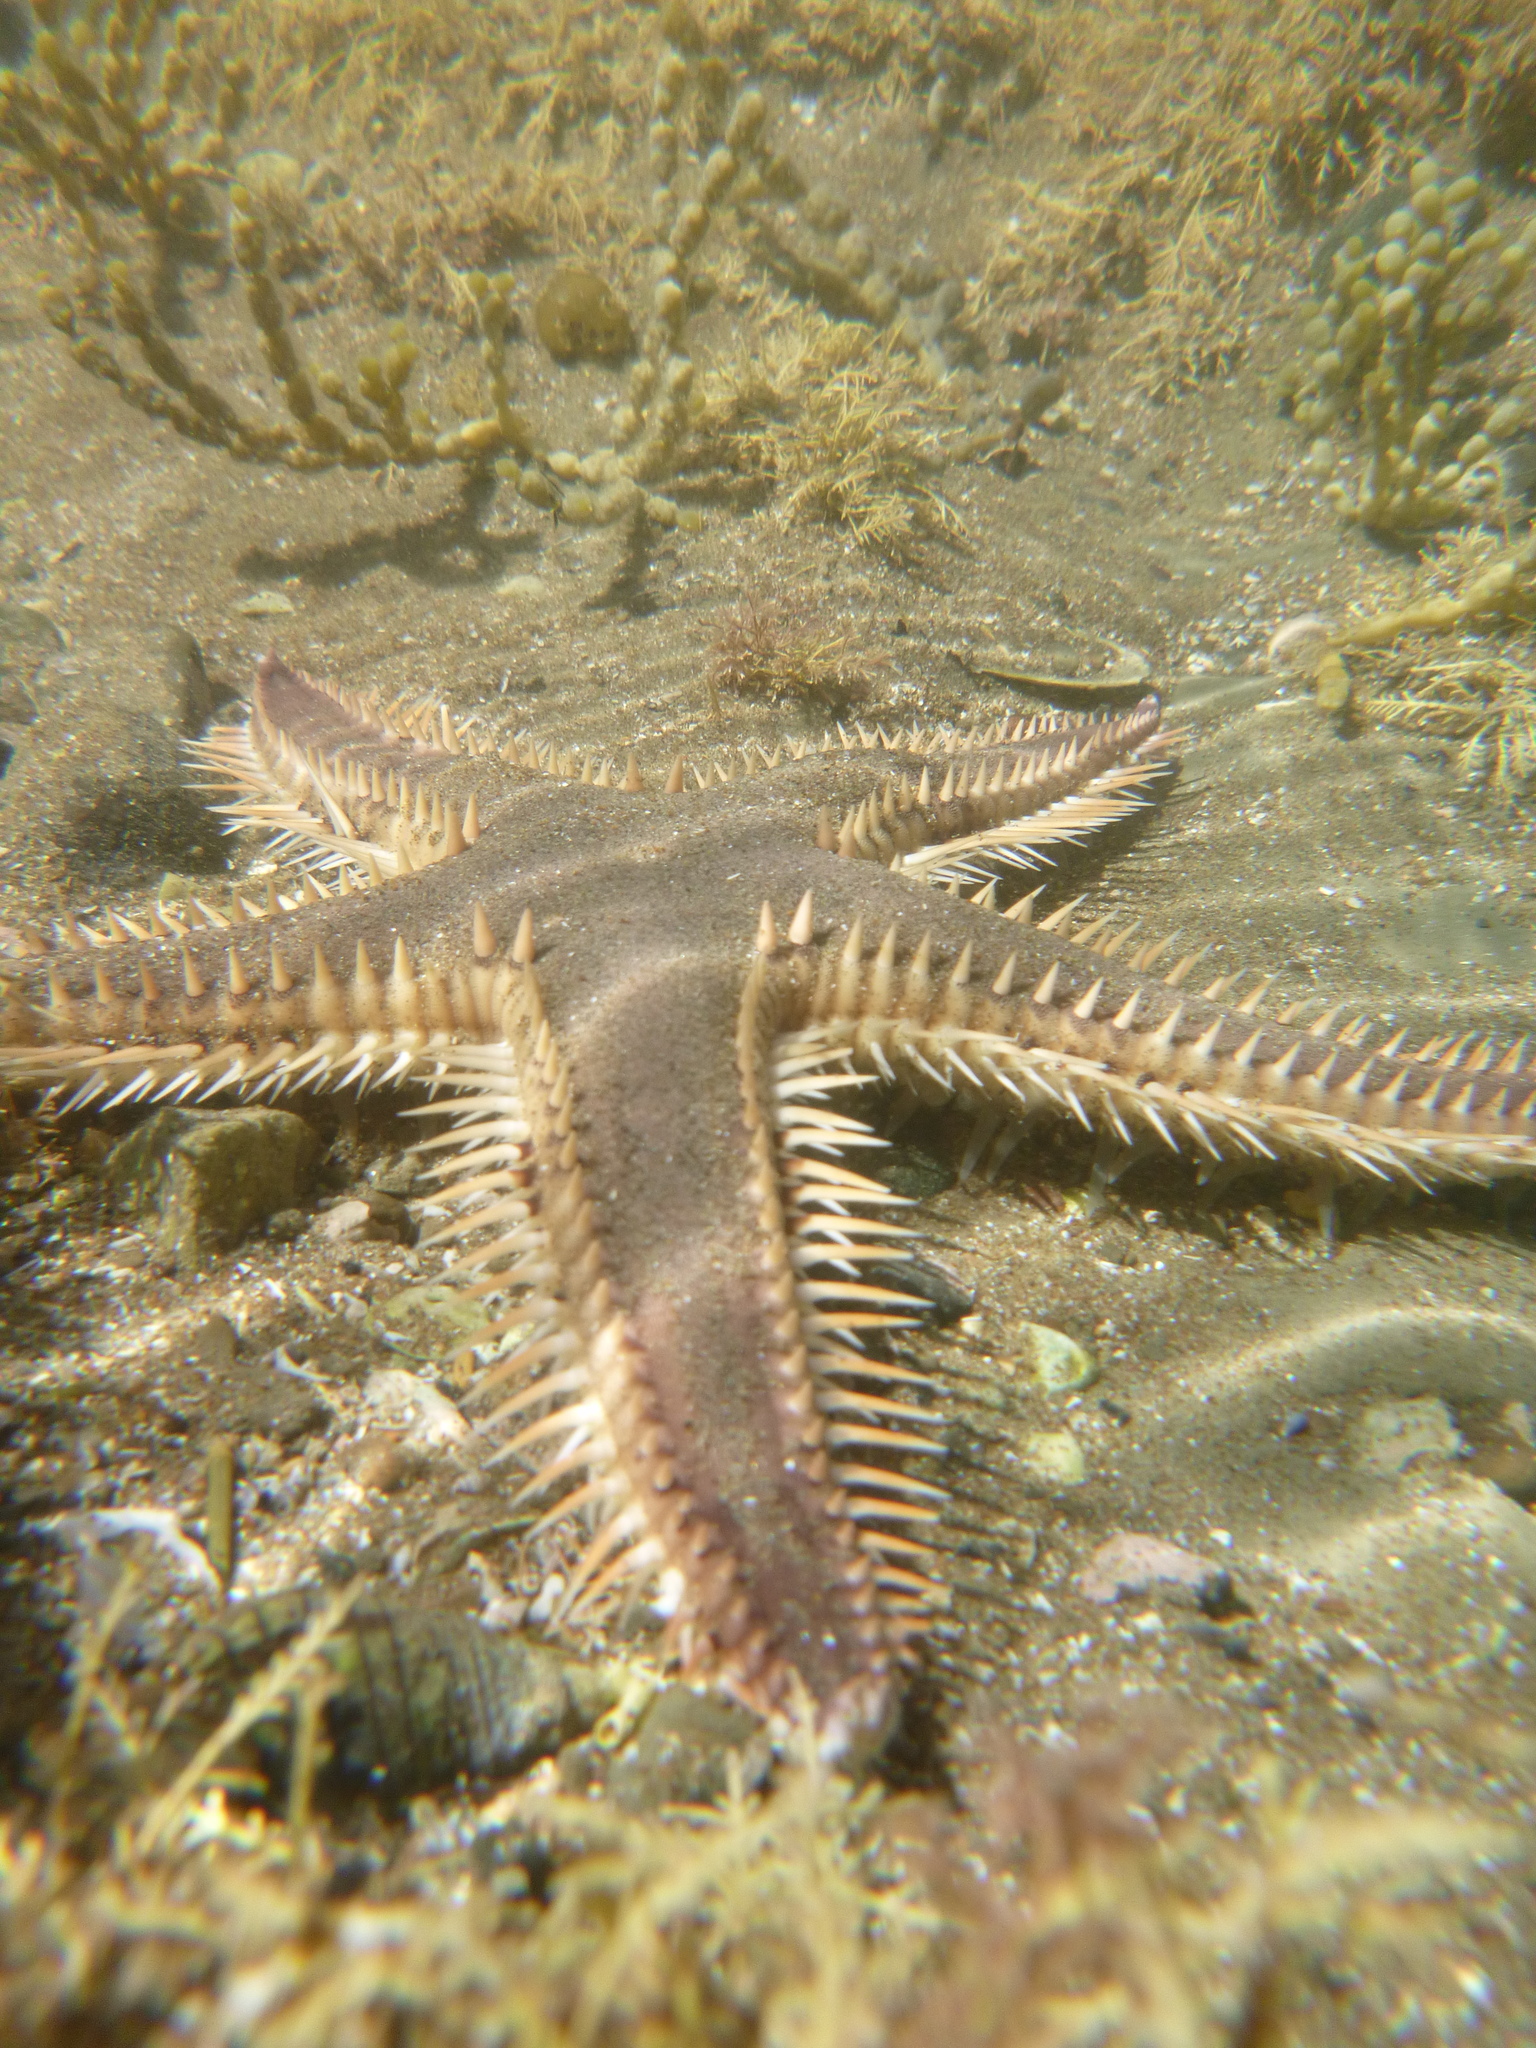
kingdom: Animalia
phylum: Echinodermata
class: Asteroidea
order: Paxillosida
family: Astropectinidae
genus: Astropecten
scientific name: Astropecten polyacanthus
